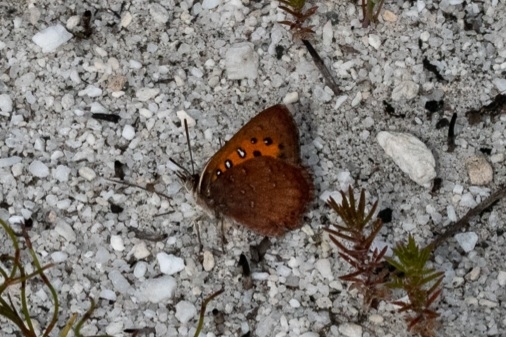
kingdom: Animalia
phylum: Arthropoda
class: Insecta
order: Lepidoptera
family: Lycaenidae
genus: Axiocerses
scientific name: Axiocerses thyra
